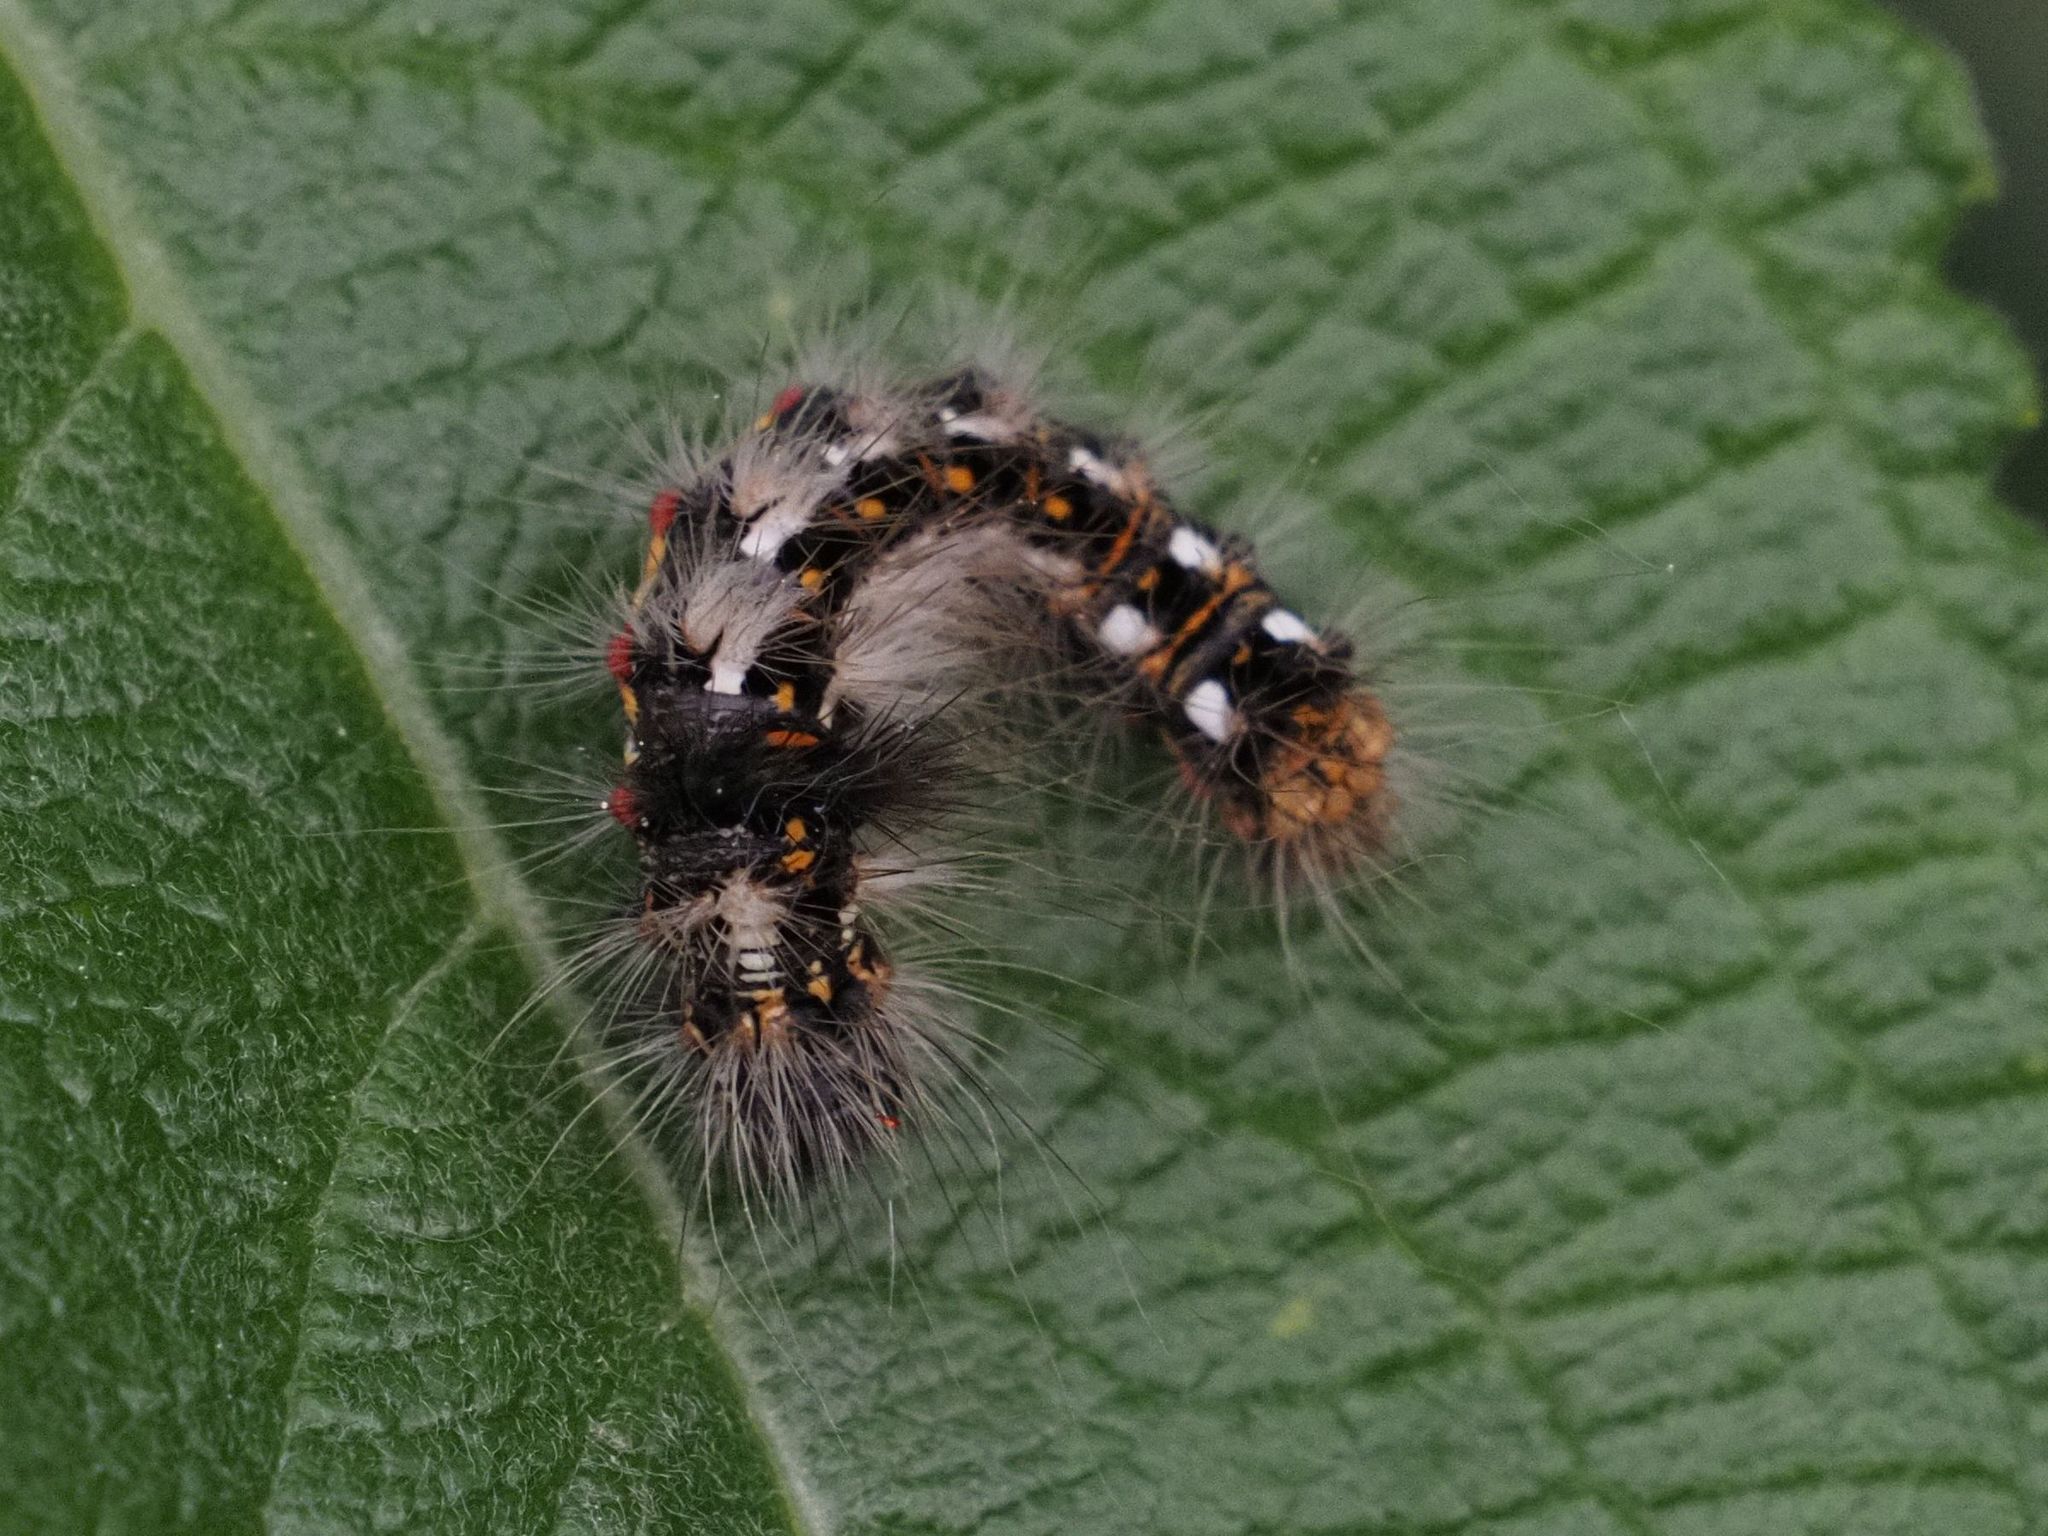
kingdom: Animalia
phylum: Arthropoda
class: Insecta
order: Lepidoptera
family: Noctuidae
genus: Acronicta
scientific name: Acronicta rumicis
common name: Knot grass
